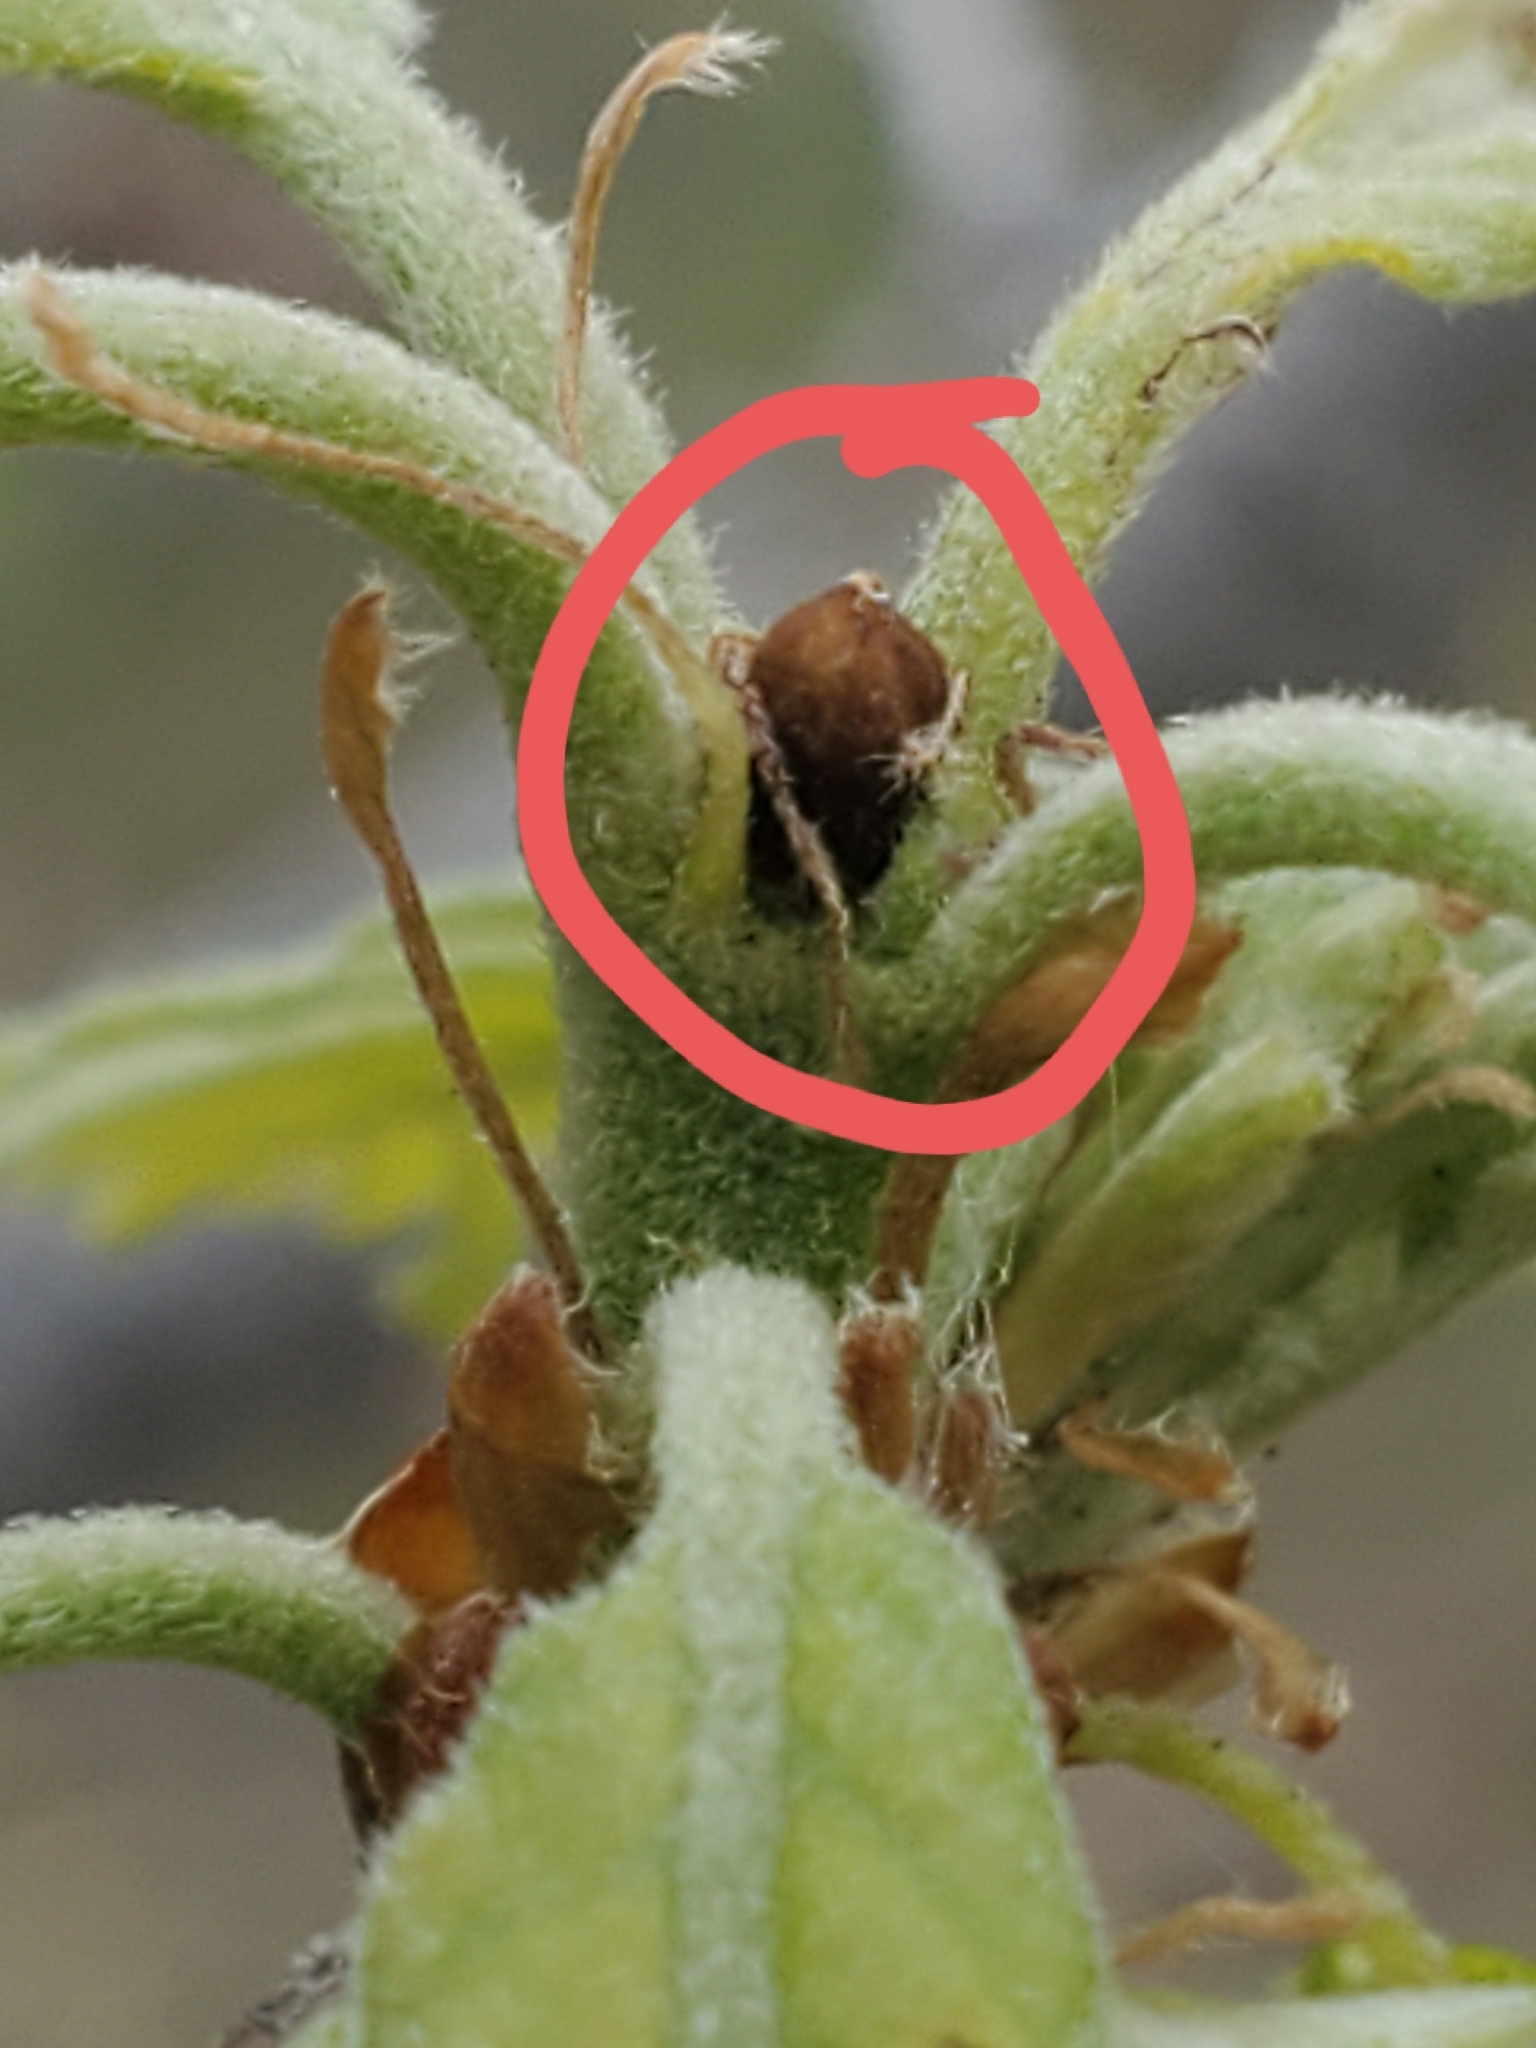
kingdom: Animalia
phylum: Arthropoda
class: Insecta
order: Hymenoptera
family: Cynipidae
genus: Philonix
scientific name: Philonix fulvicollis
